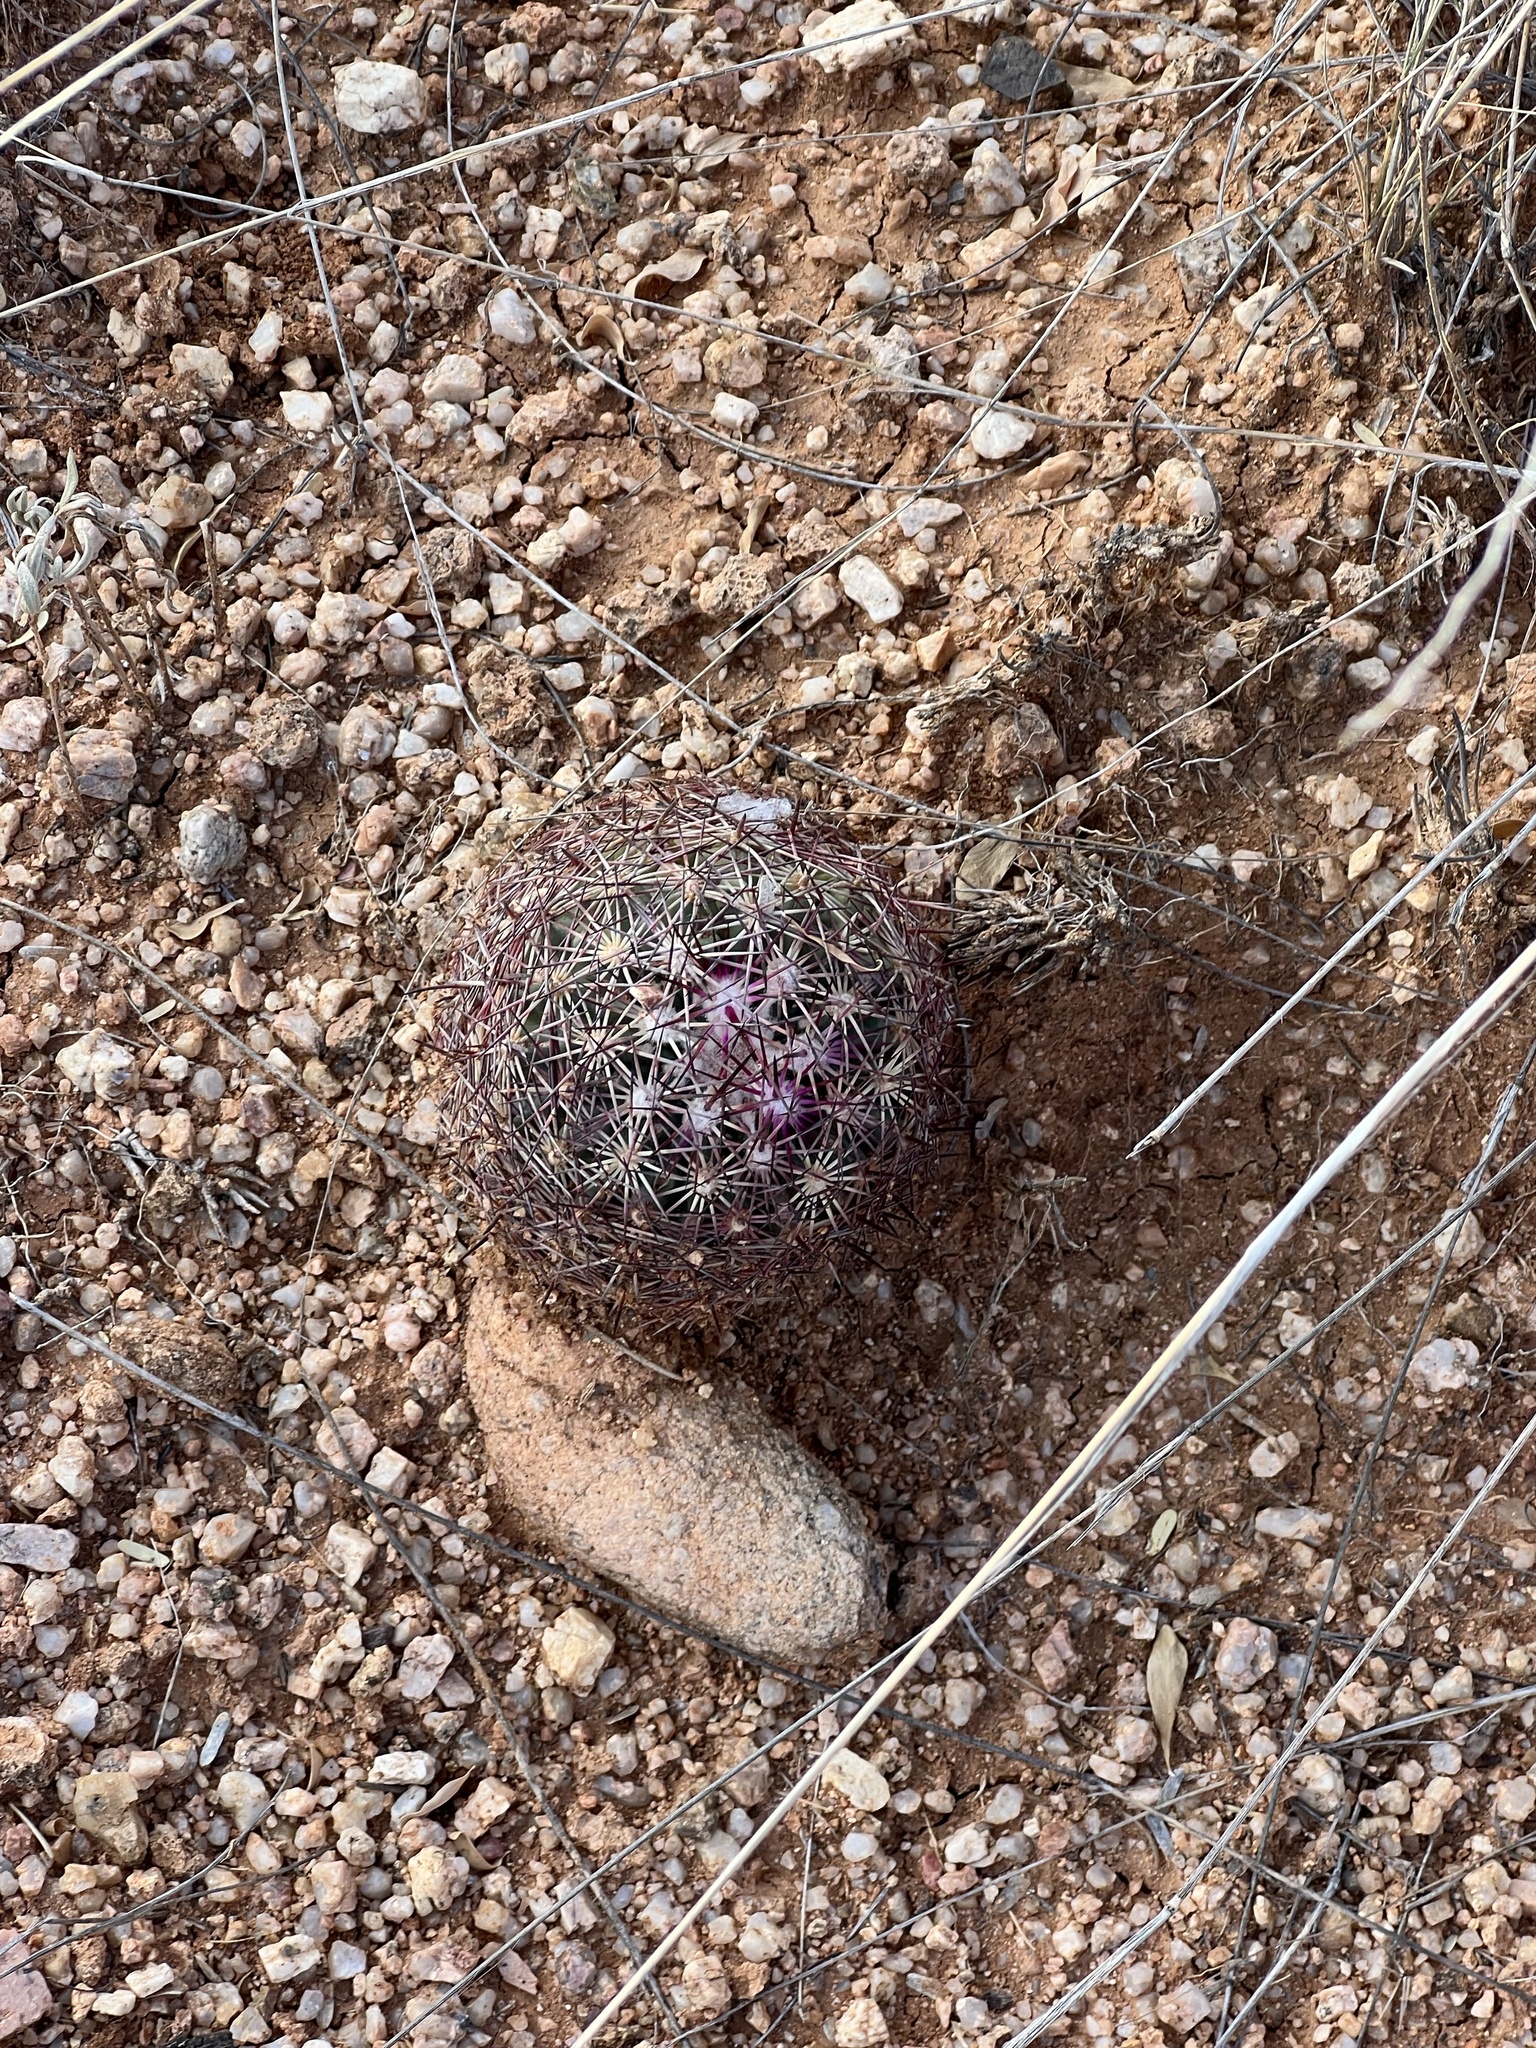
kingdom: Plantae
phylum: Tracheophyta
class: Magnoliopsida
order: Caryophyllales
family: Cactaceae
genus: Sclerocactus
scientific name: Sclerocactus johnsonii
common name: Eight-spine fishhook cactus
